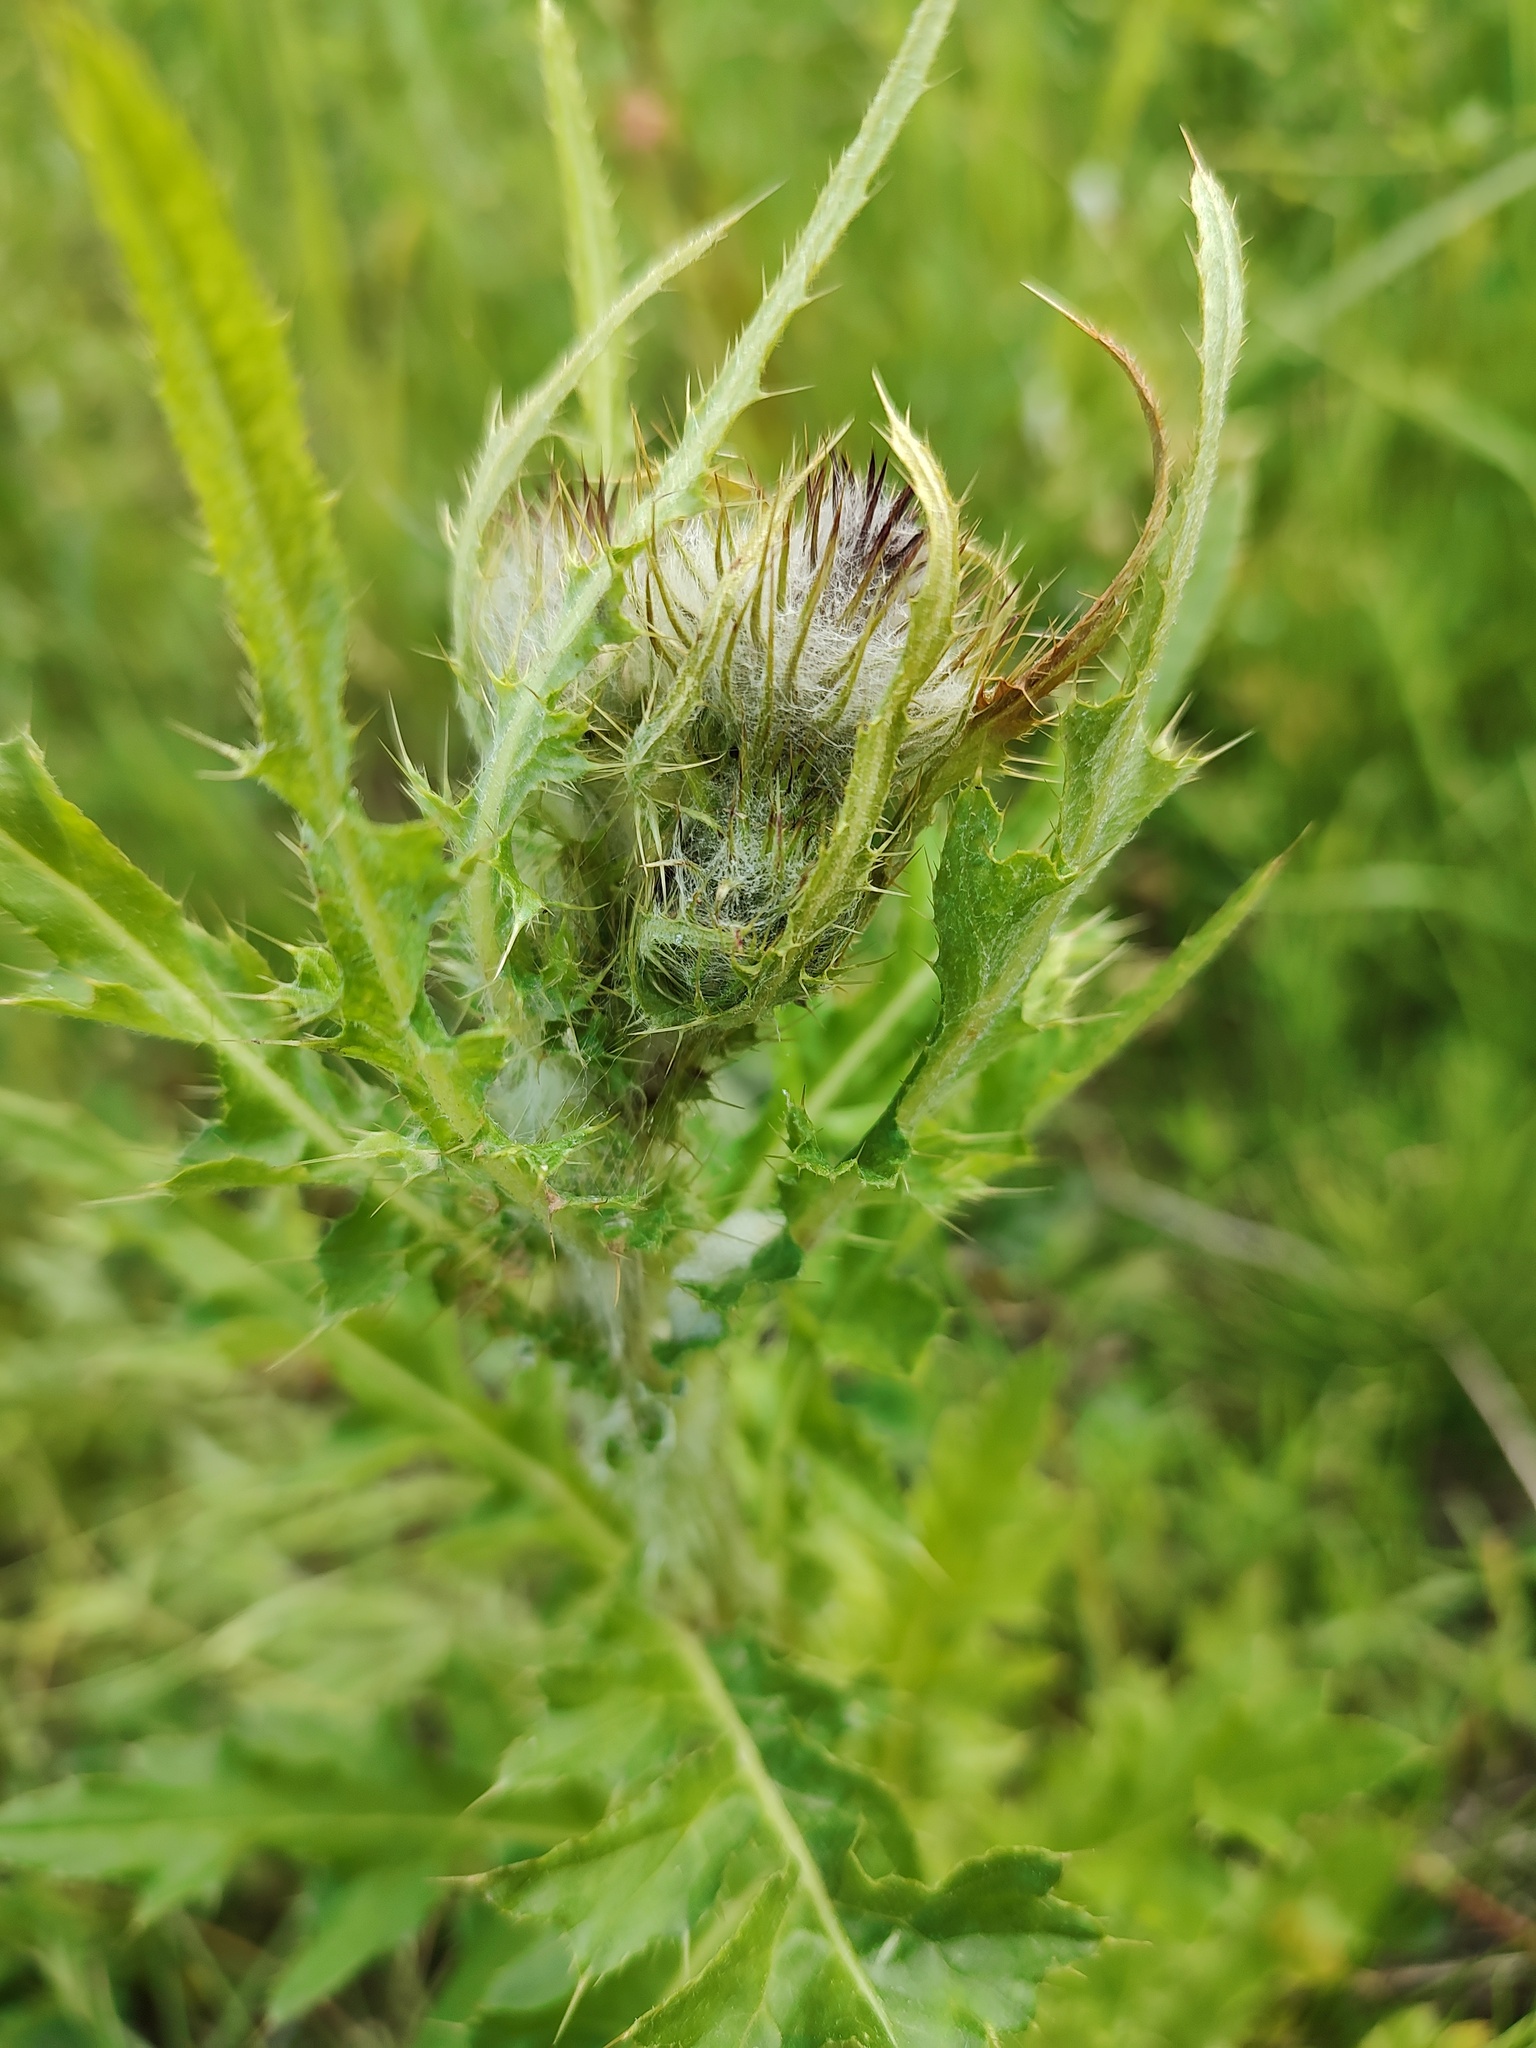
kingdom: Plantae
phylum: Tracheophyta
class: Magnoliopsida
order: Asterales
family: Asteraceae
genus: Cirsium
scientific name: Cirsium edule
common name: Indian thistle
